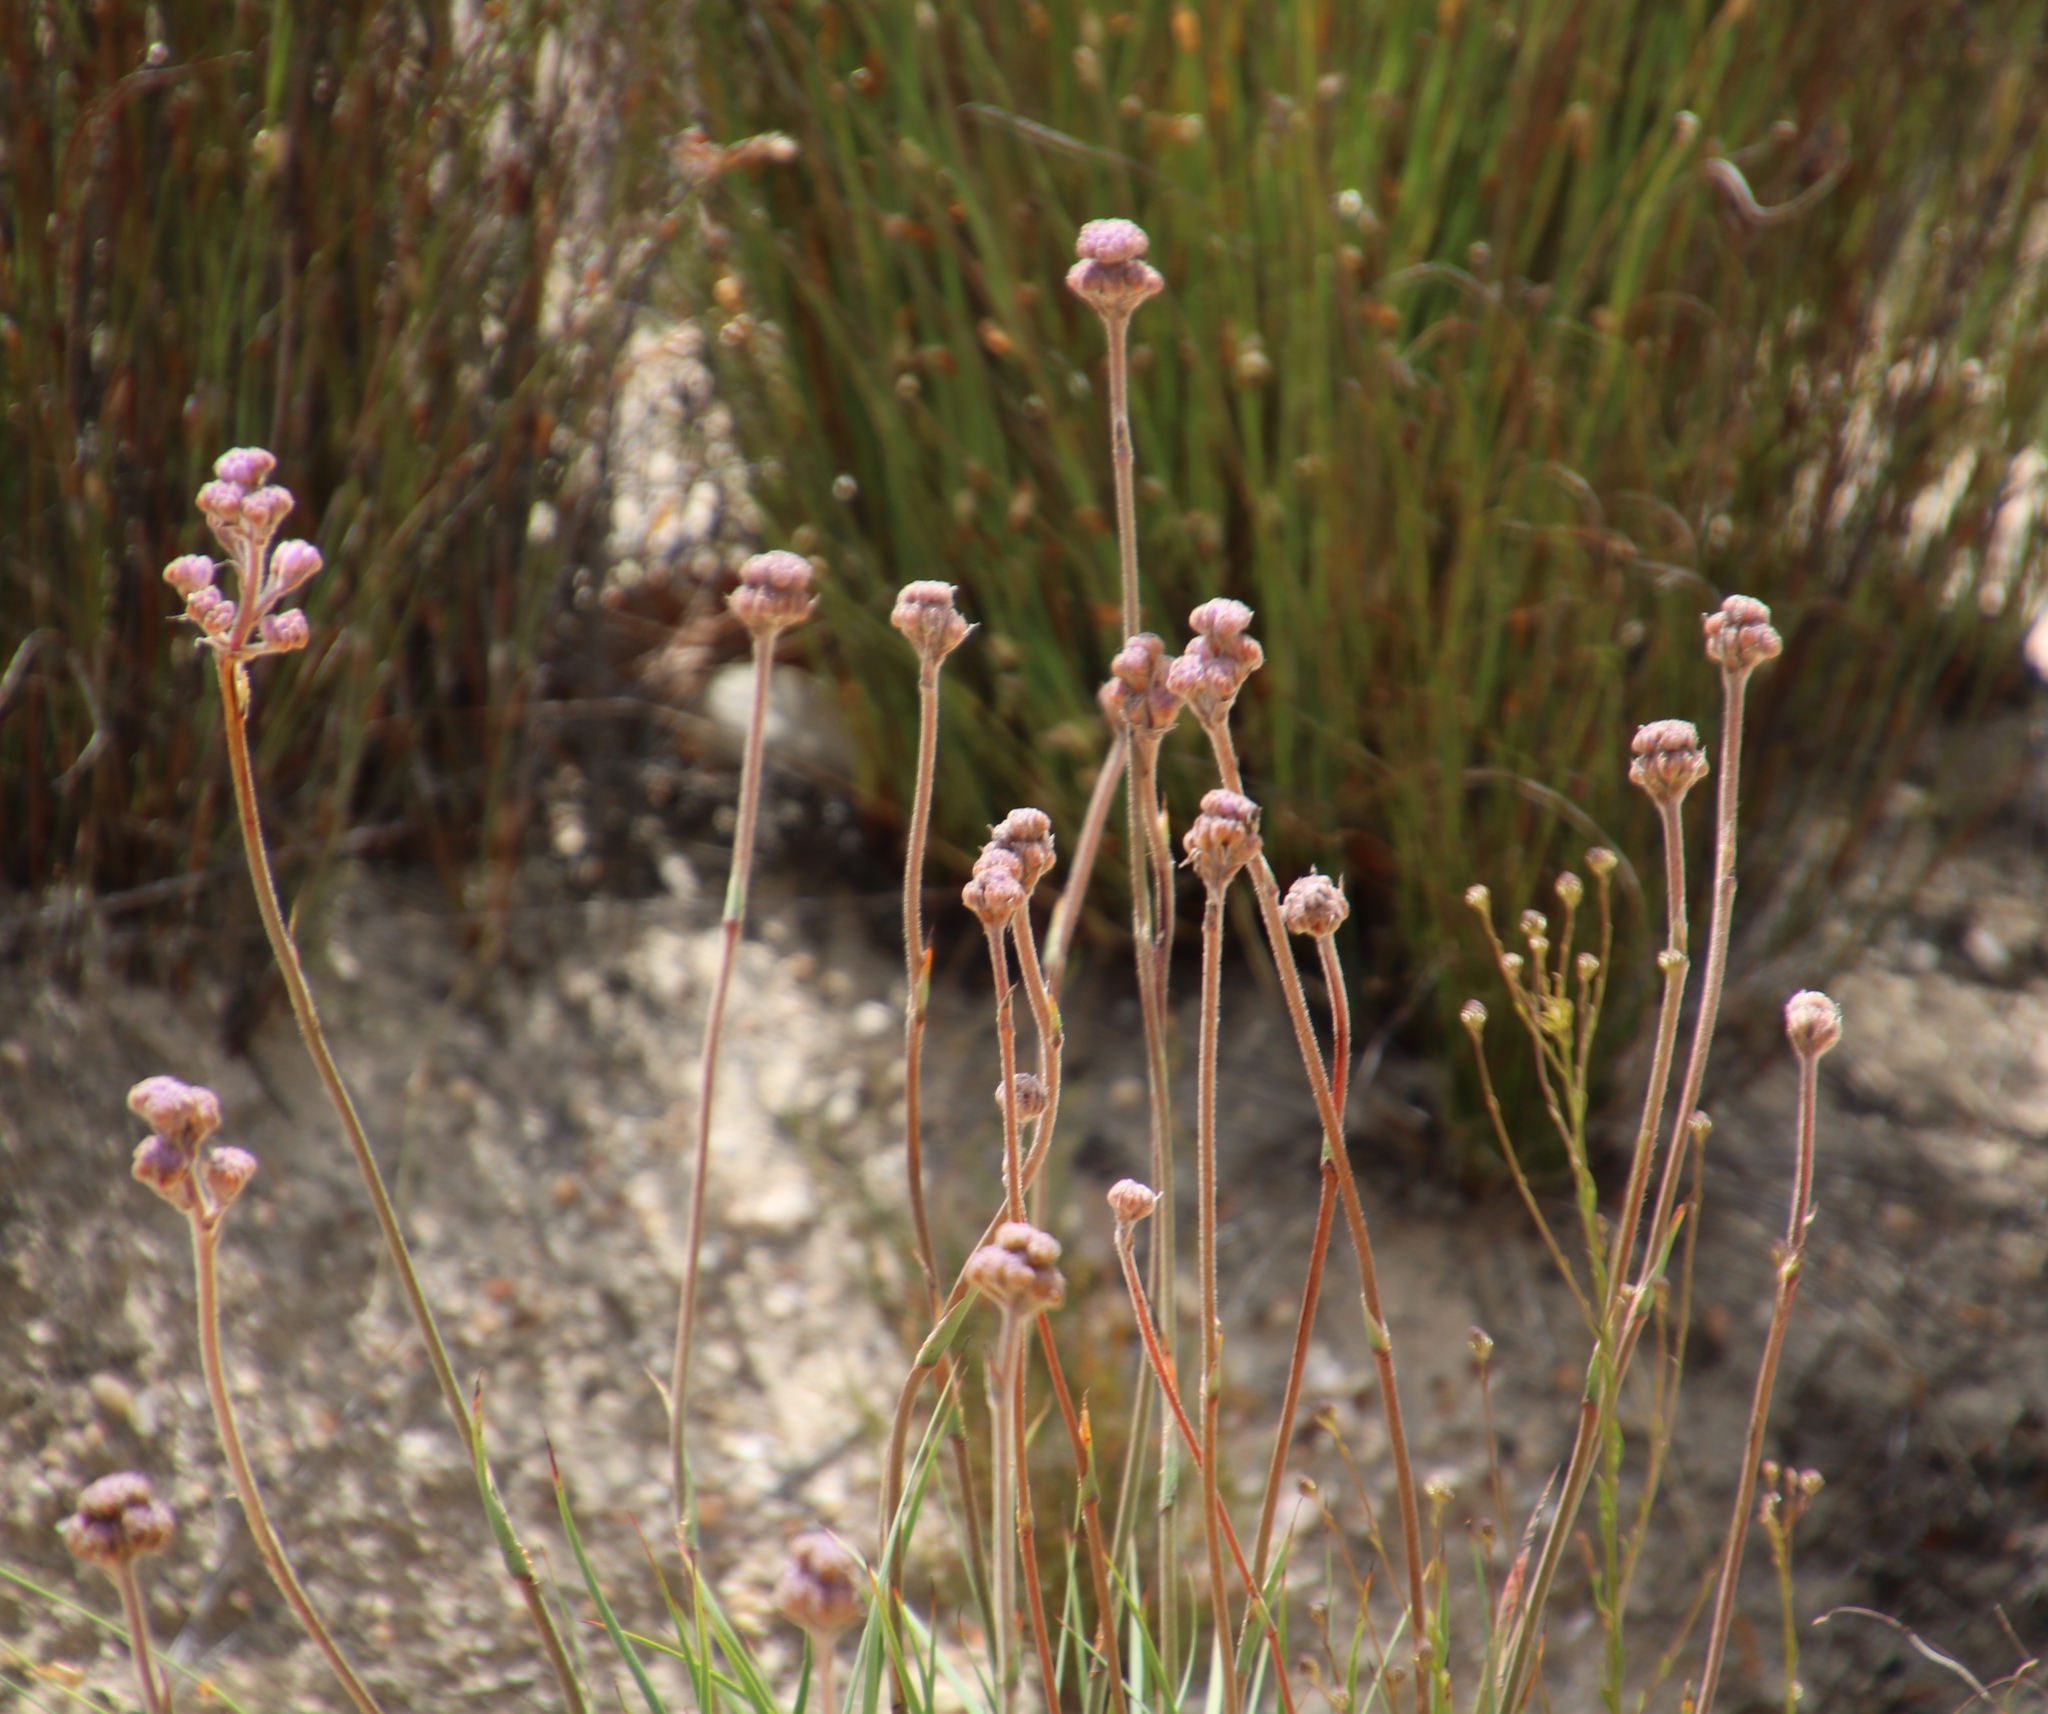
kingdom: Plantae
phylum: Tracheophyta
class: Liliopsida
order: Commelinales
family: Haemodoraceae
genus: Dilatris
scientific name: Dilatris ixioides
